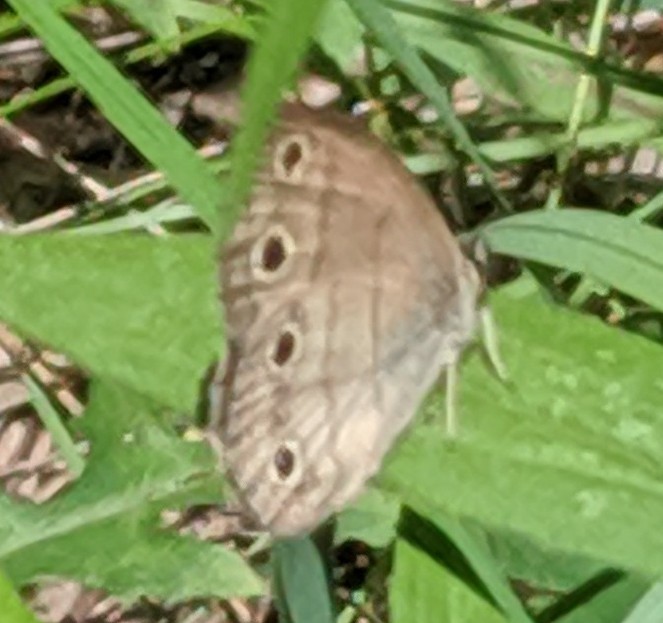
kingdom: Animalia
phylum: Arthropoda
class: Insecta
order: Lepidoptera
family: Nymphalidae
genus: Euptychia
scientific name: Euptychia cymela
